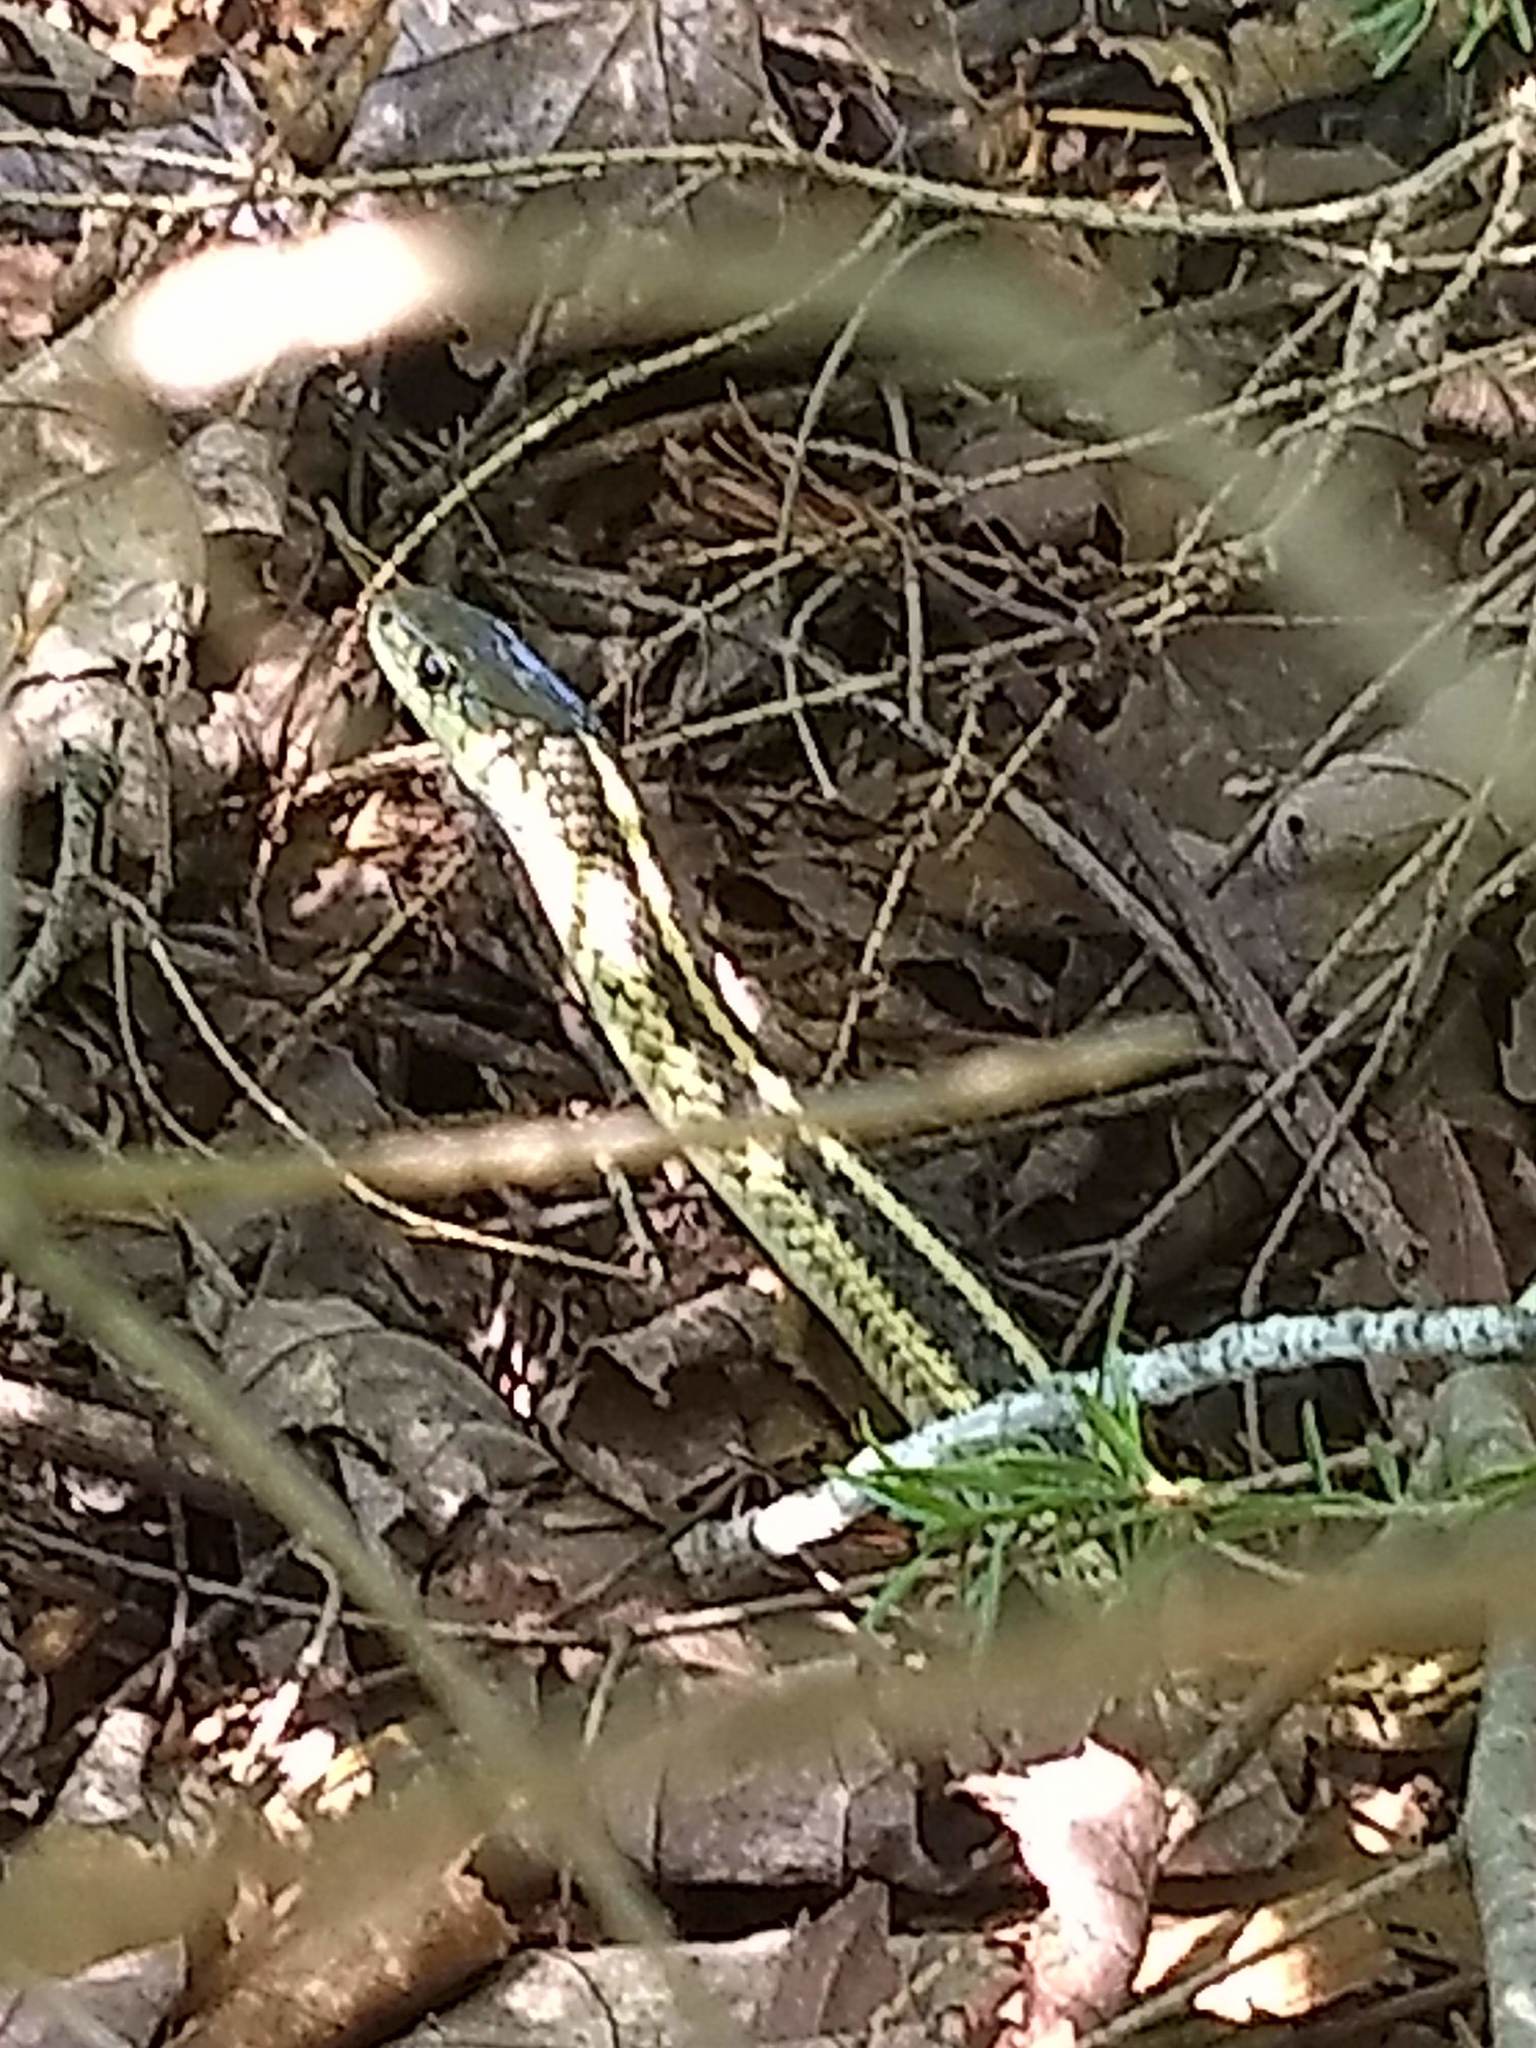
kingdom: Animalia
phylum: Chordata
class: Squamata
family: Colubridae
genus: Thamnophis
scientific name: Thamnophis sirtalis
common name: Common garter snake
